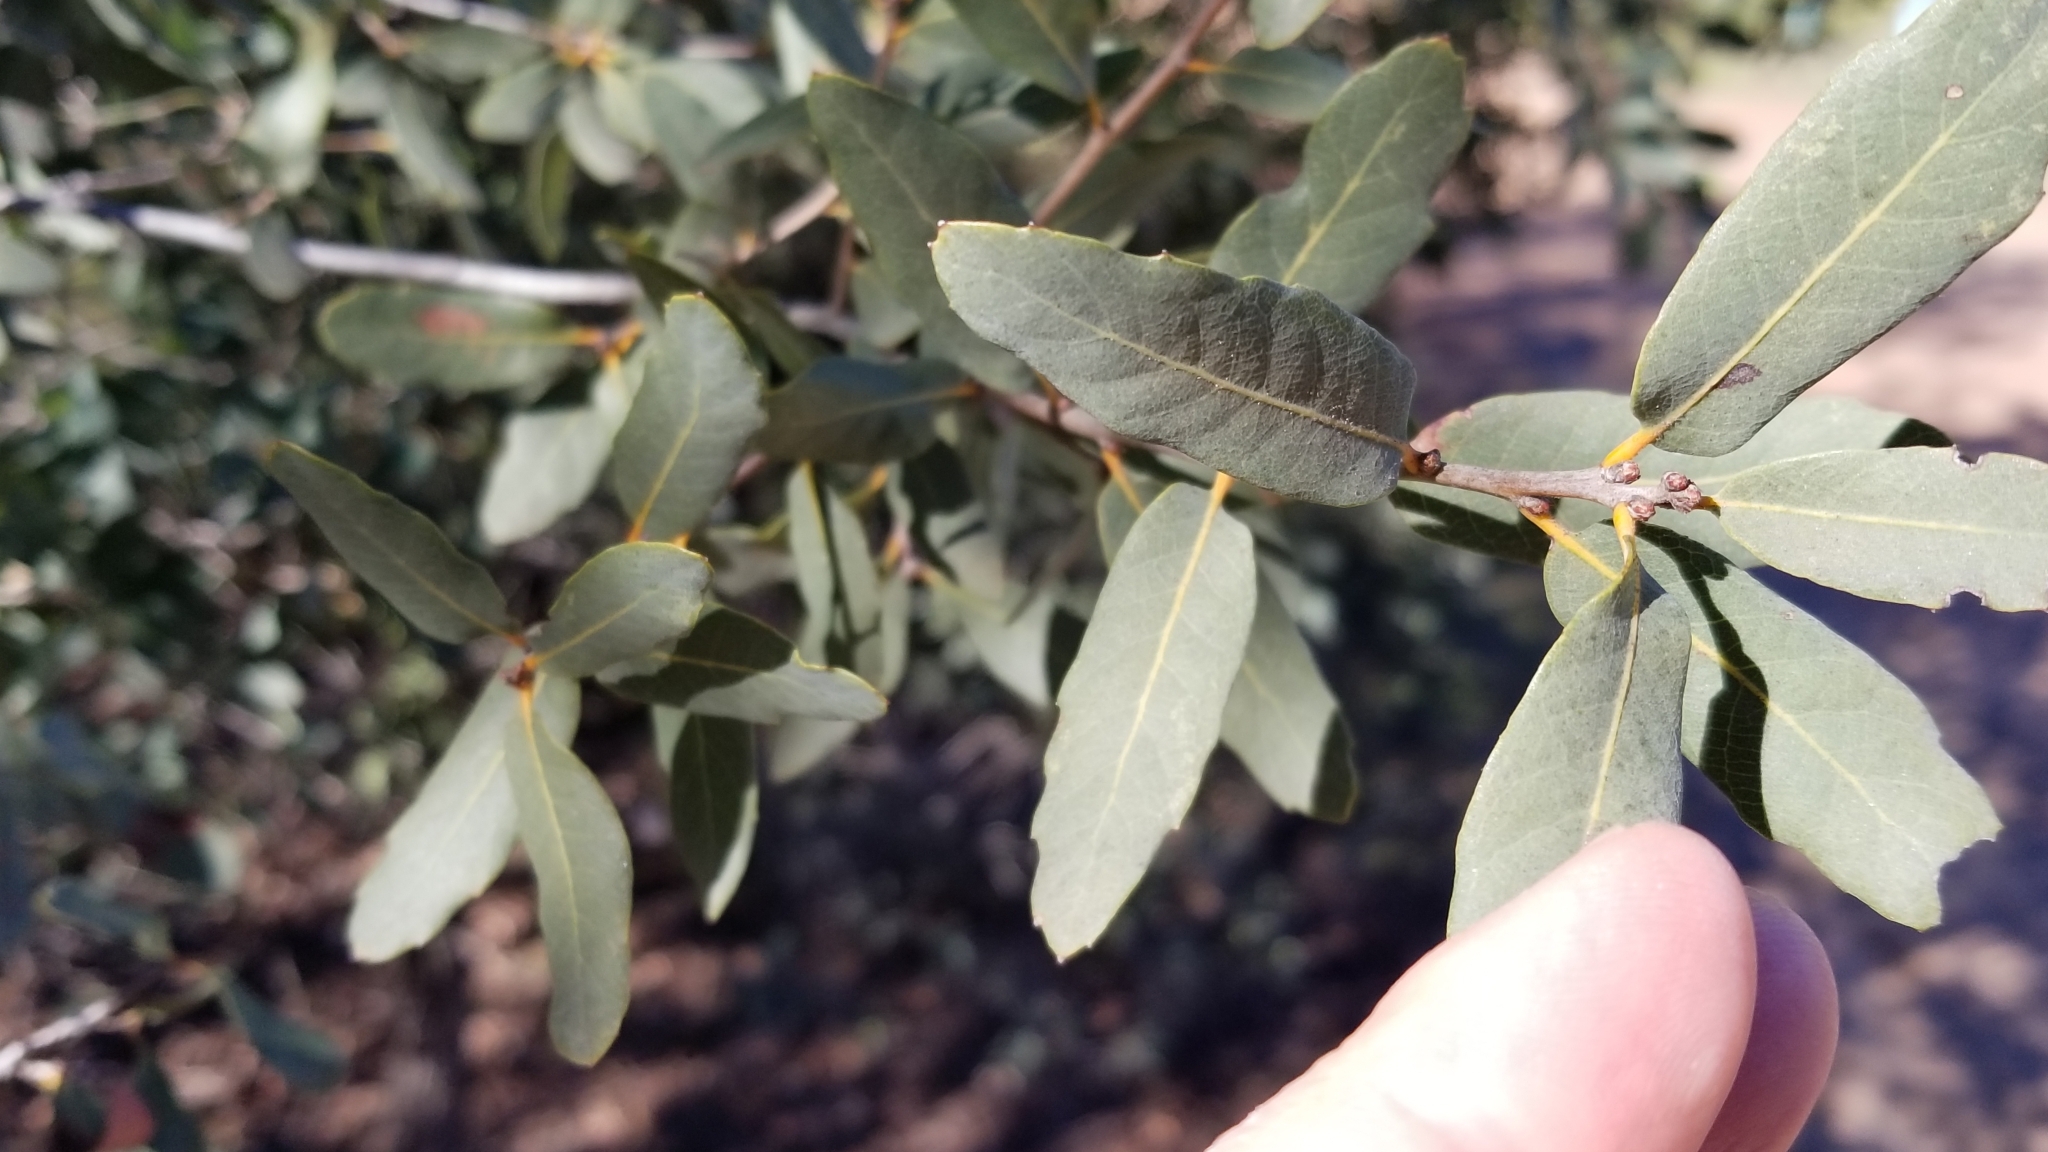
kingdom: Plantae
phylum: Tracheophyta
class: Magnoliopsida
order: Fagales
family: Fagaceae
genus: Quercus
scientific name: Quercus engelmannii
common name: Engelmann oak
